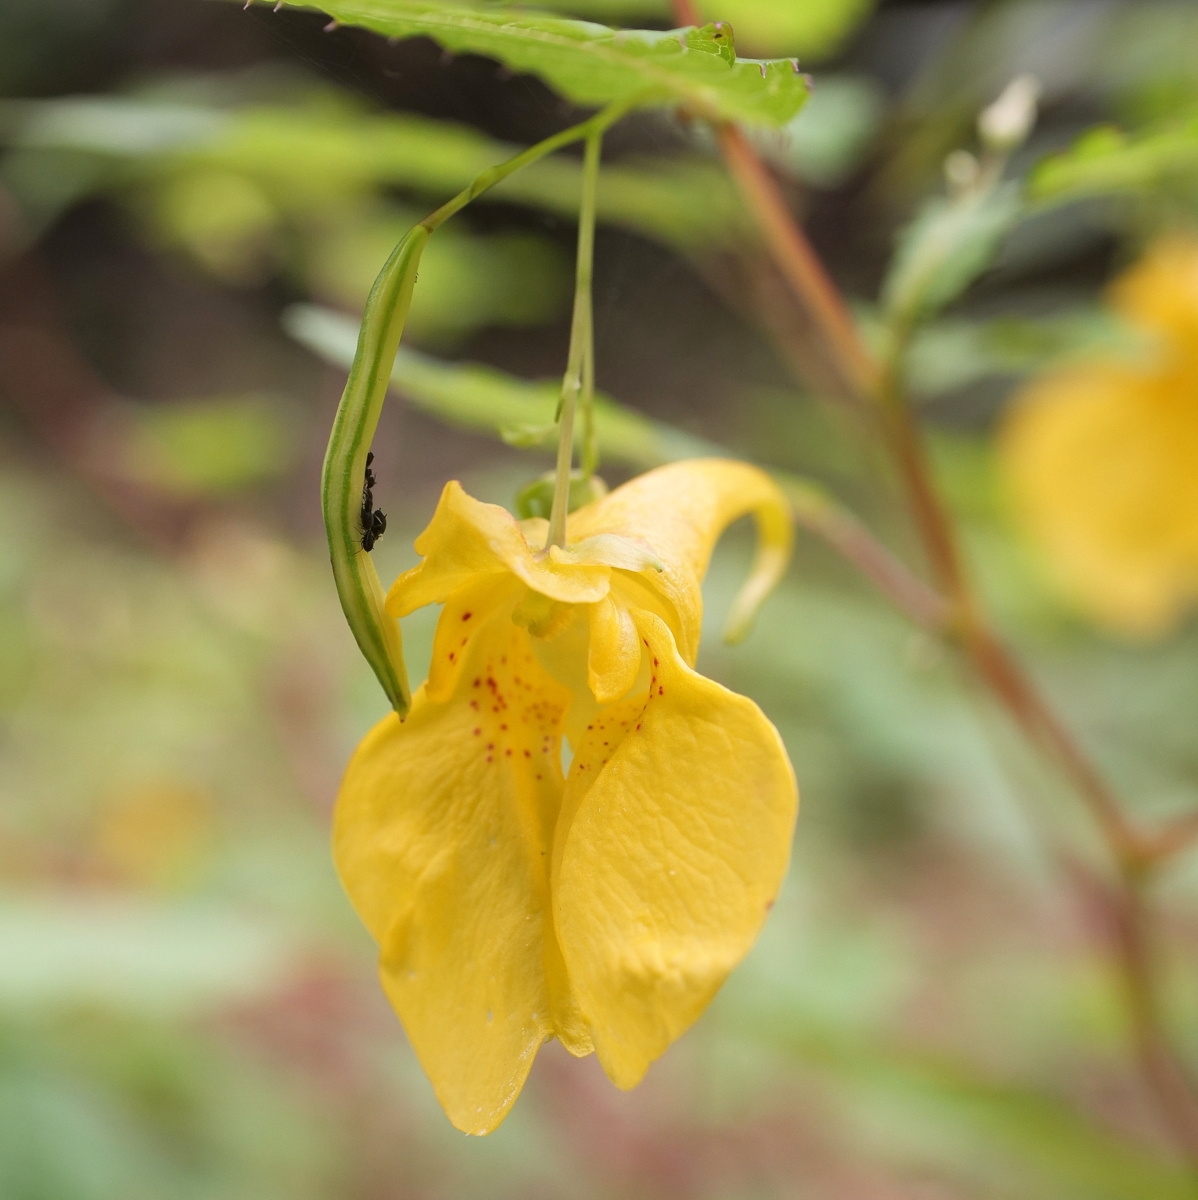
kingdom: Plantae
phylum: Tracheophyta
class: Magnoliopsida
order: Ericales
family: Balsaminaceae
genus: Impatiens
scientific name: Impatiens noli-tangere
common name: Touch-me-not balsam
